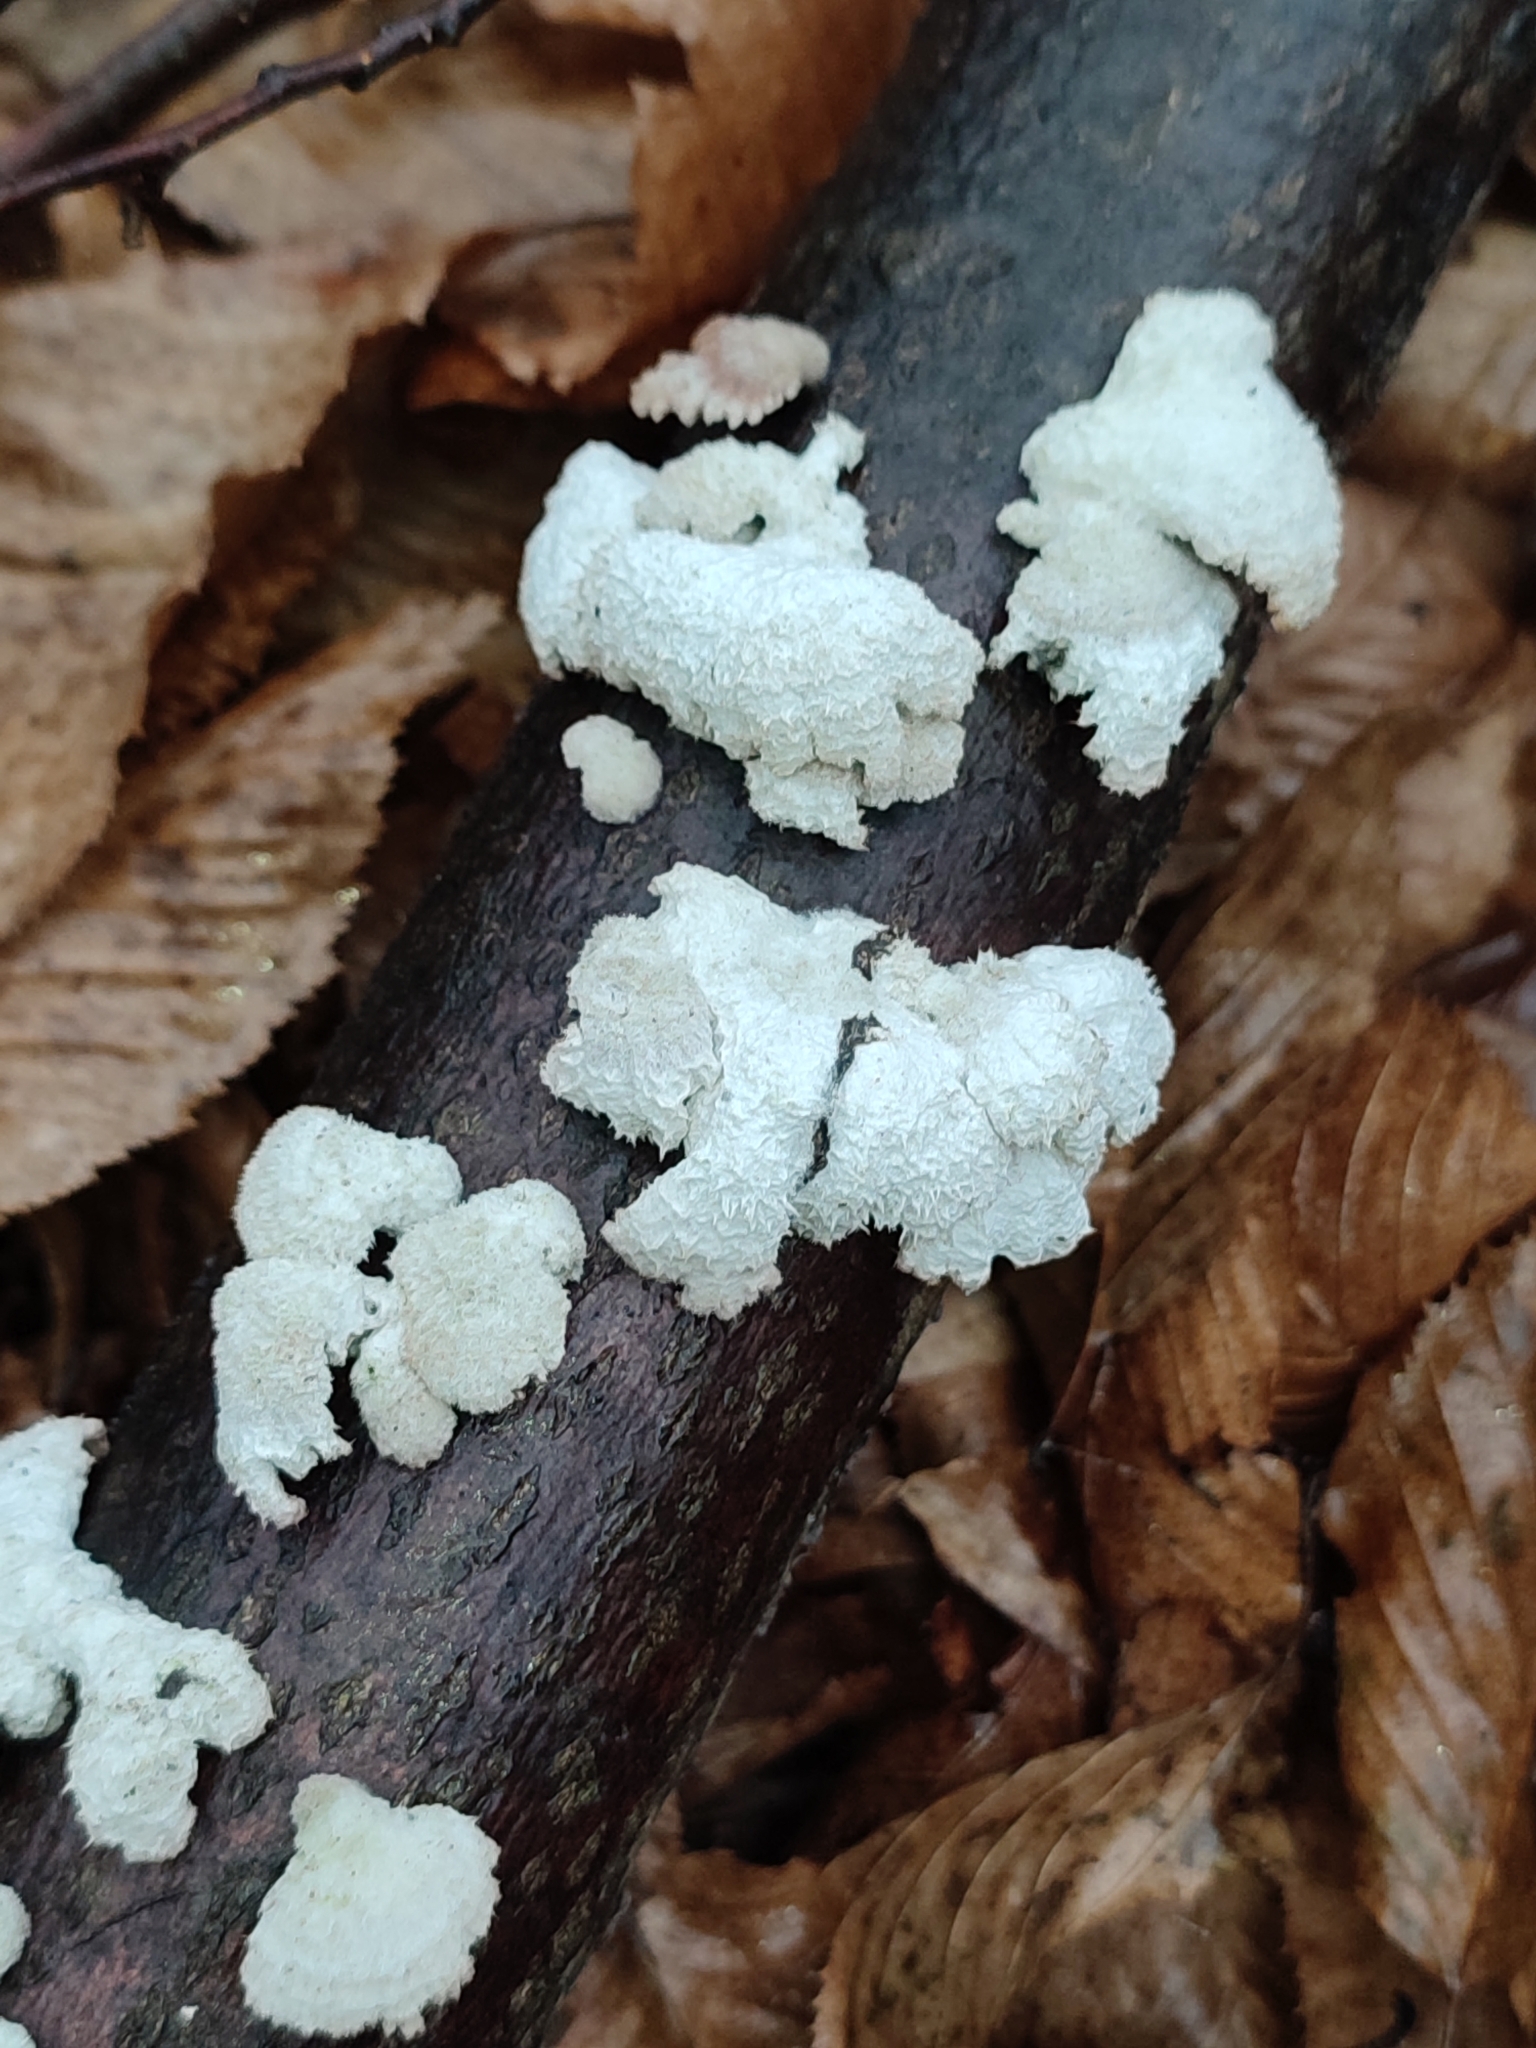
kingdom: Fungi
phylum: Basidiomycota
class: Agaricomycetes
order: Agaricales
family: Schizophyllaceae
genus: Schizophyllum
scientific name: Schizophyllum commune
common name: Common porecrust
